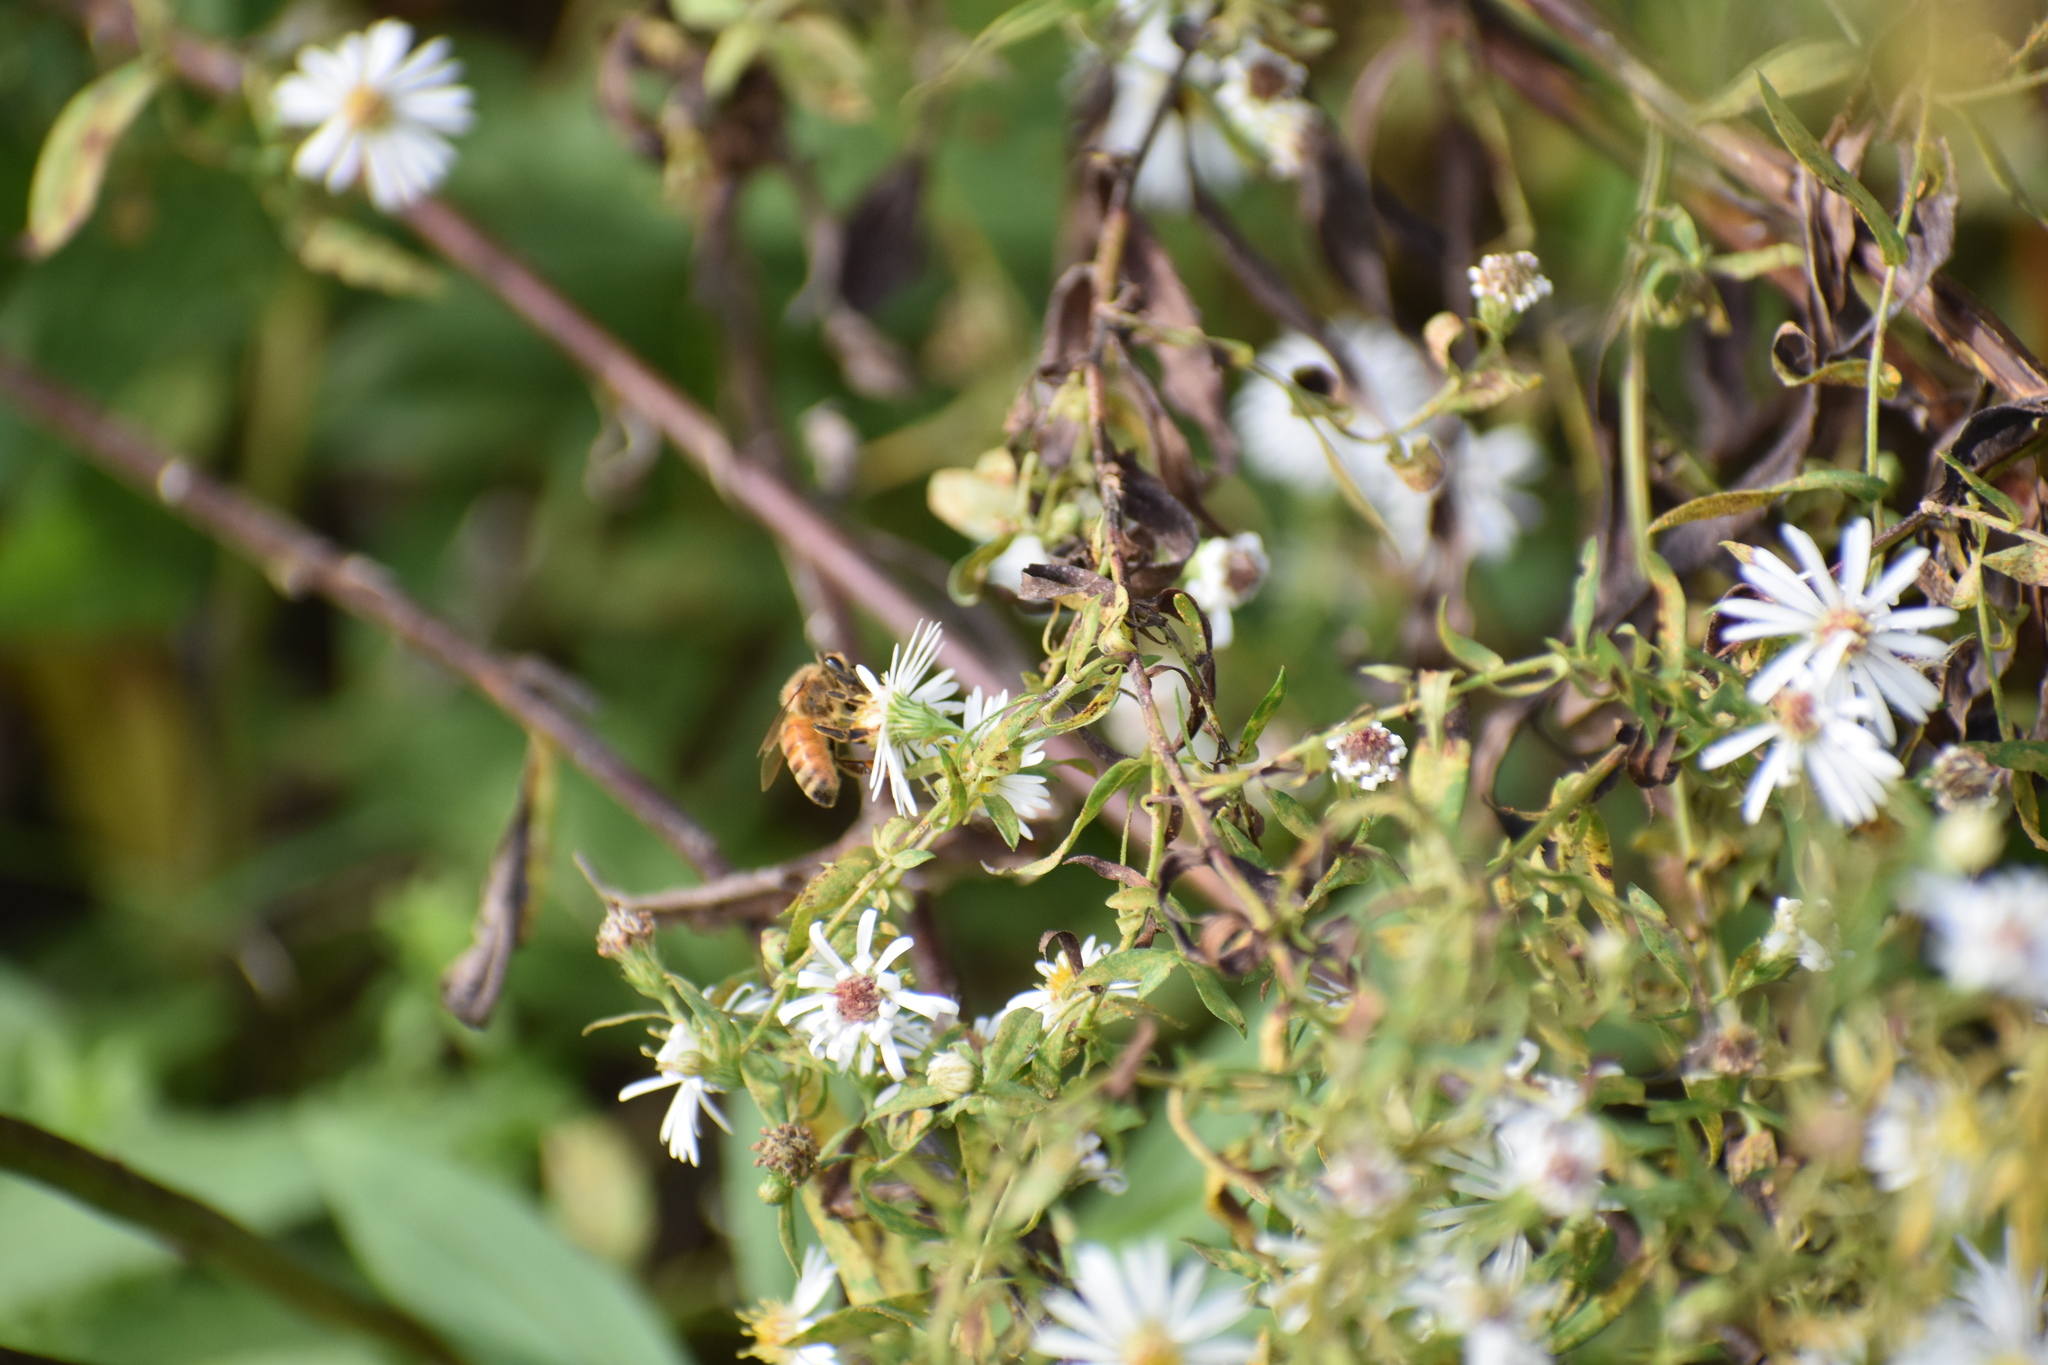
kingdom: Animalia
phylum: Arthropoda
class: Insecta
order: Hymenoptera
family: Apidae
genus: Apis
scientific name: Apis mellifera
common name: Honey bee
